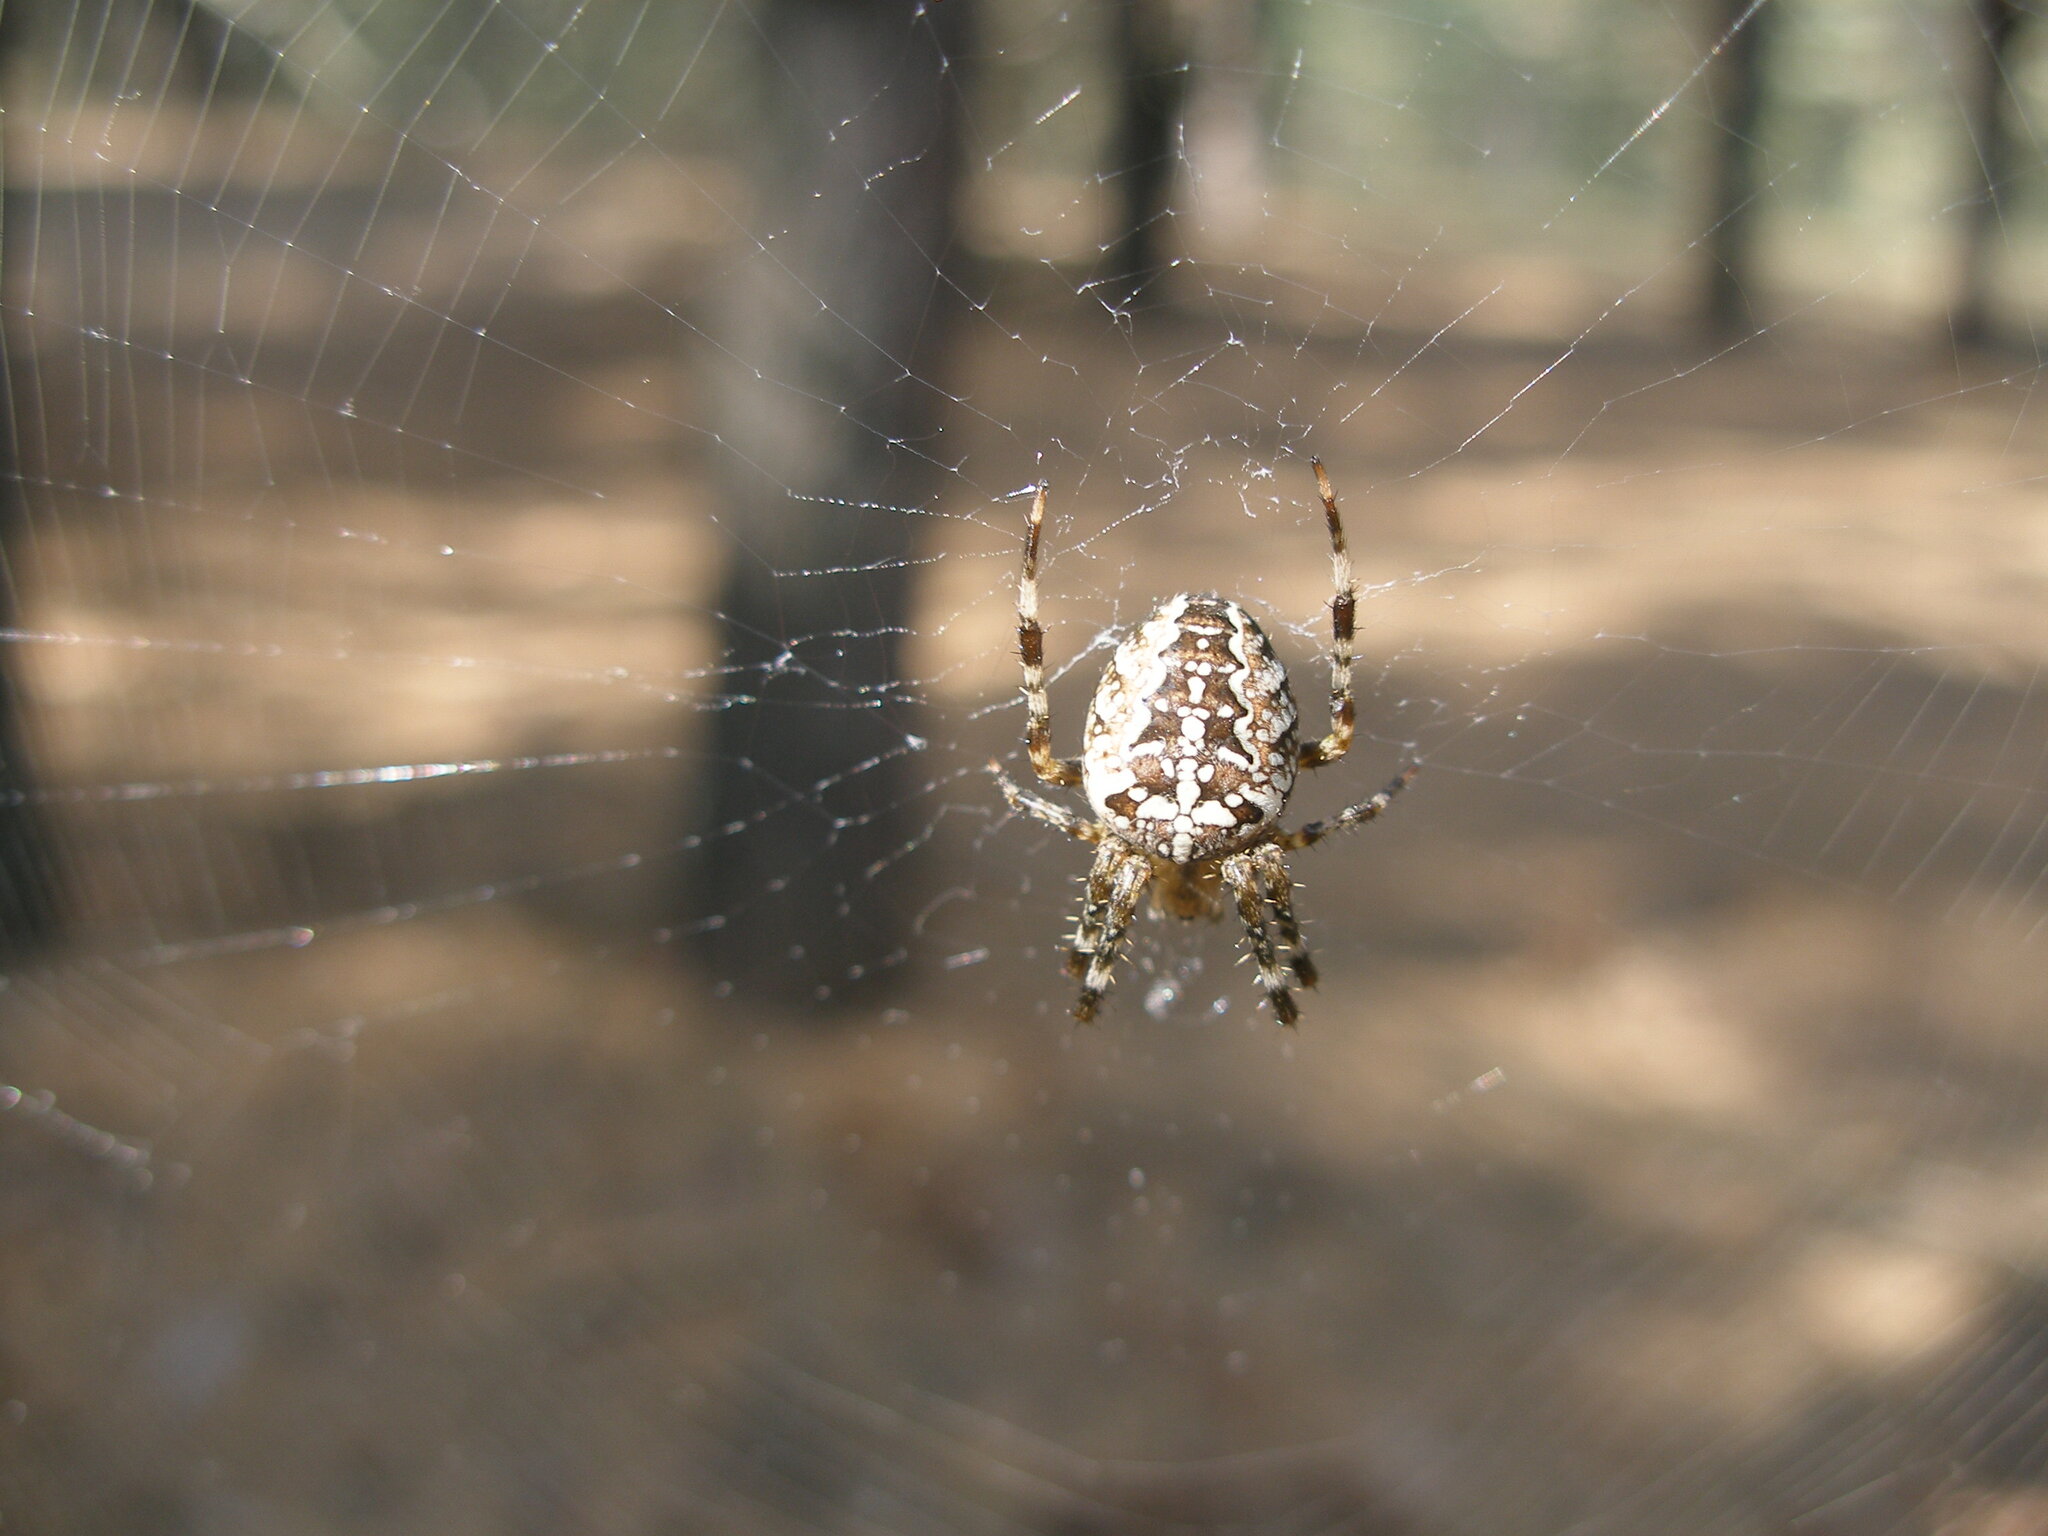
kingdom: Animalia
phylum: Arthropoda
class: Arachnida
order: Araneae
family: Araneidae
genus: Araneus
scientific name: Araneus diadematus
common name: Cross orbweaver
